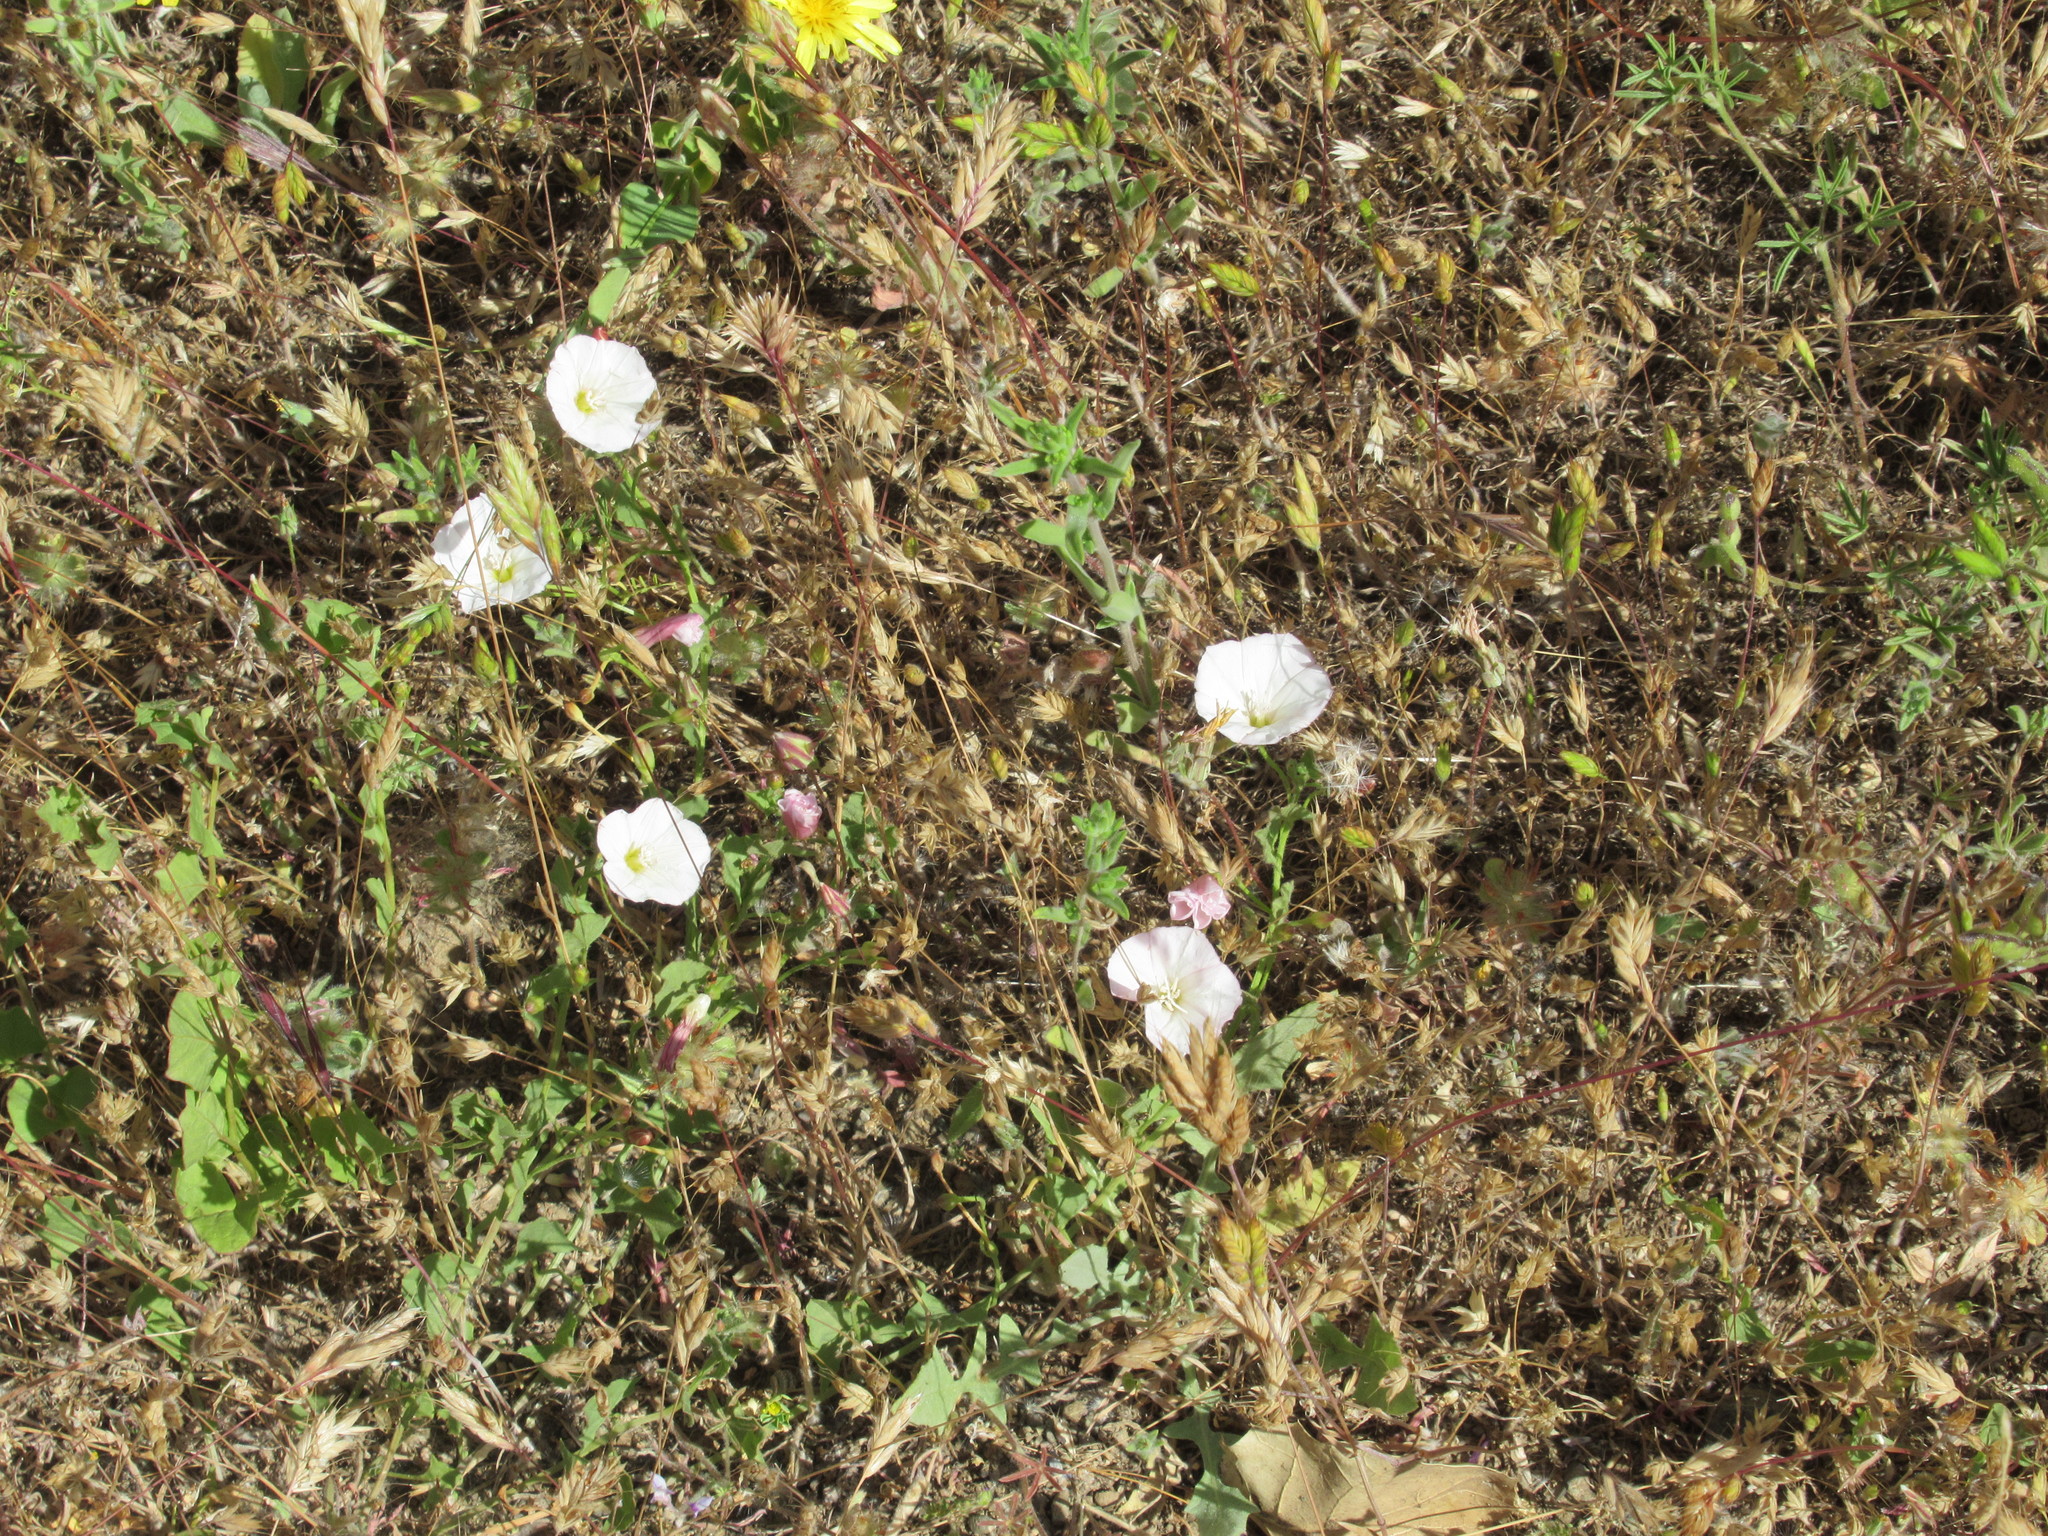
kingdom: Plantae
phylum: Tracheophyta
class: Magnoliopsida
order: Solanales
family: Convolvulaceae
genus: Convolvulus
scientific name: Convolvulus arvensis
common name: Field bindweed
